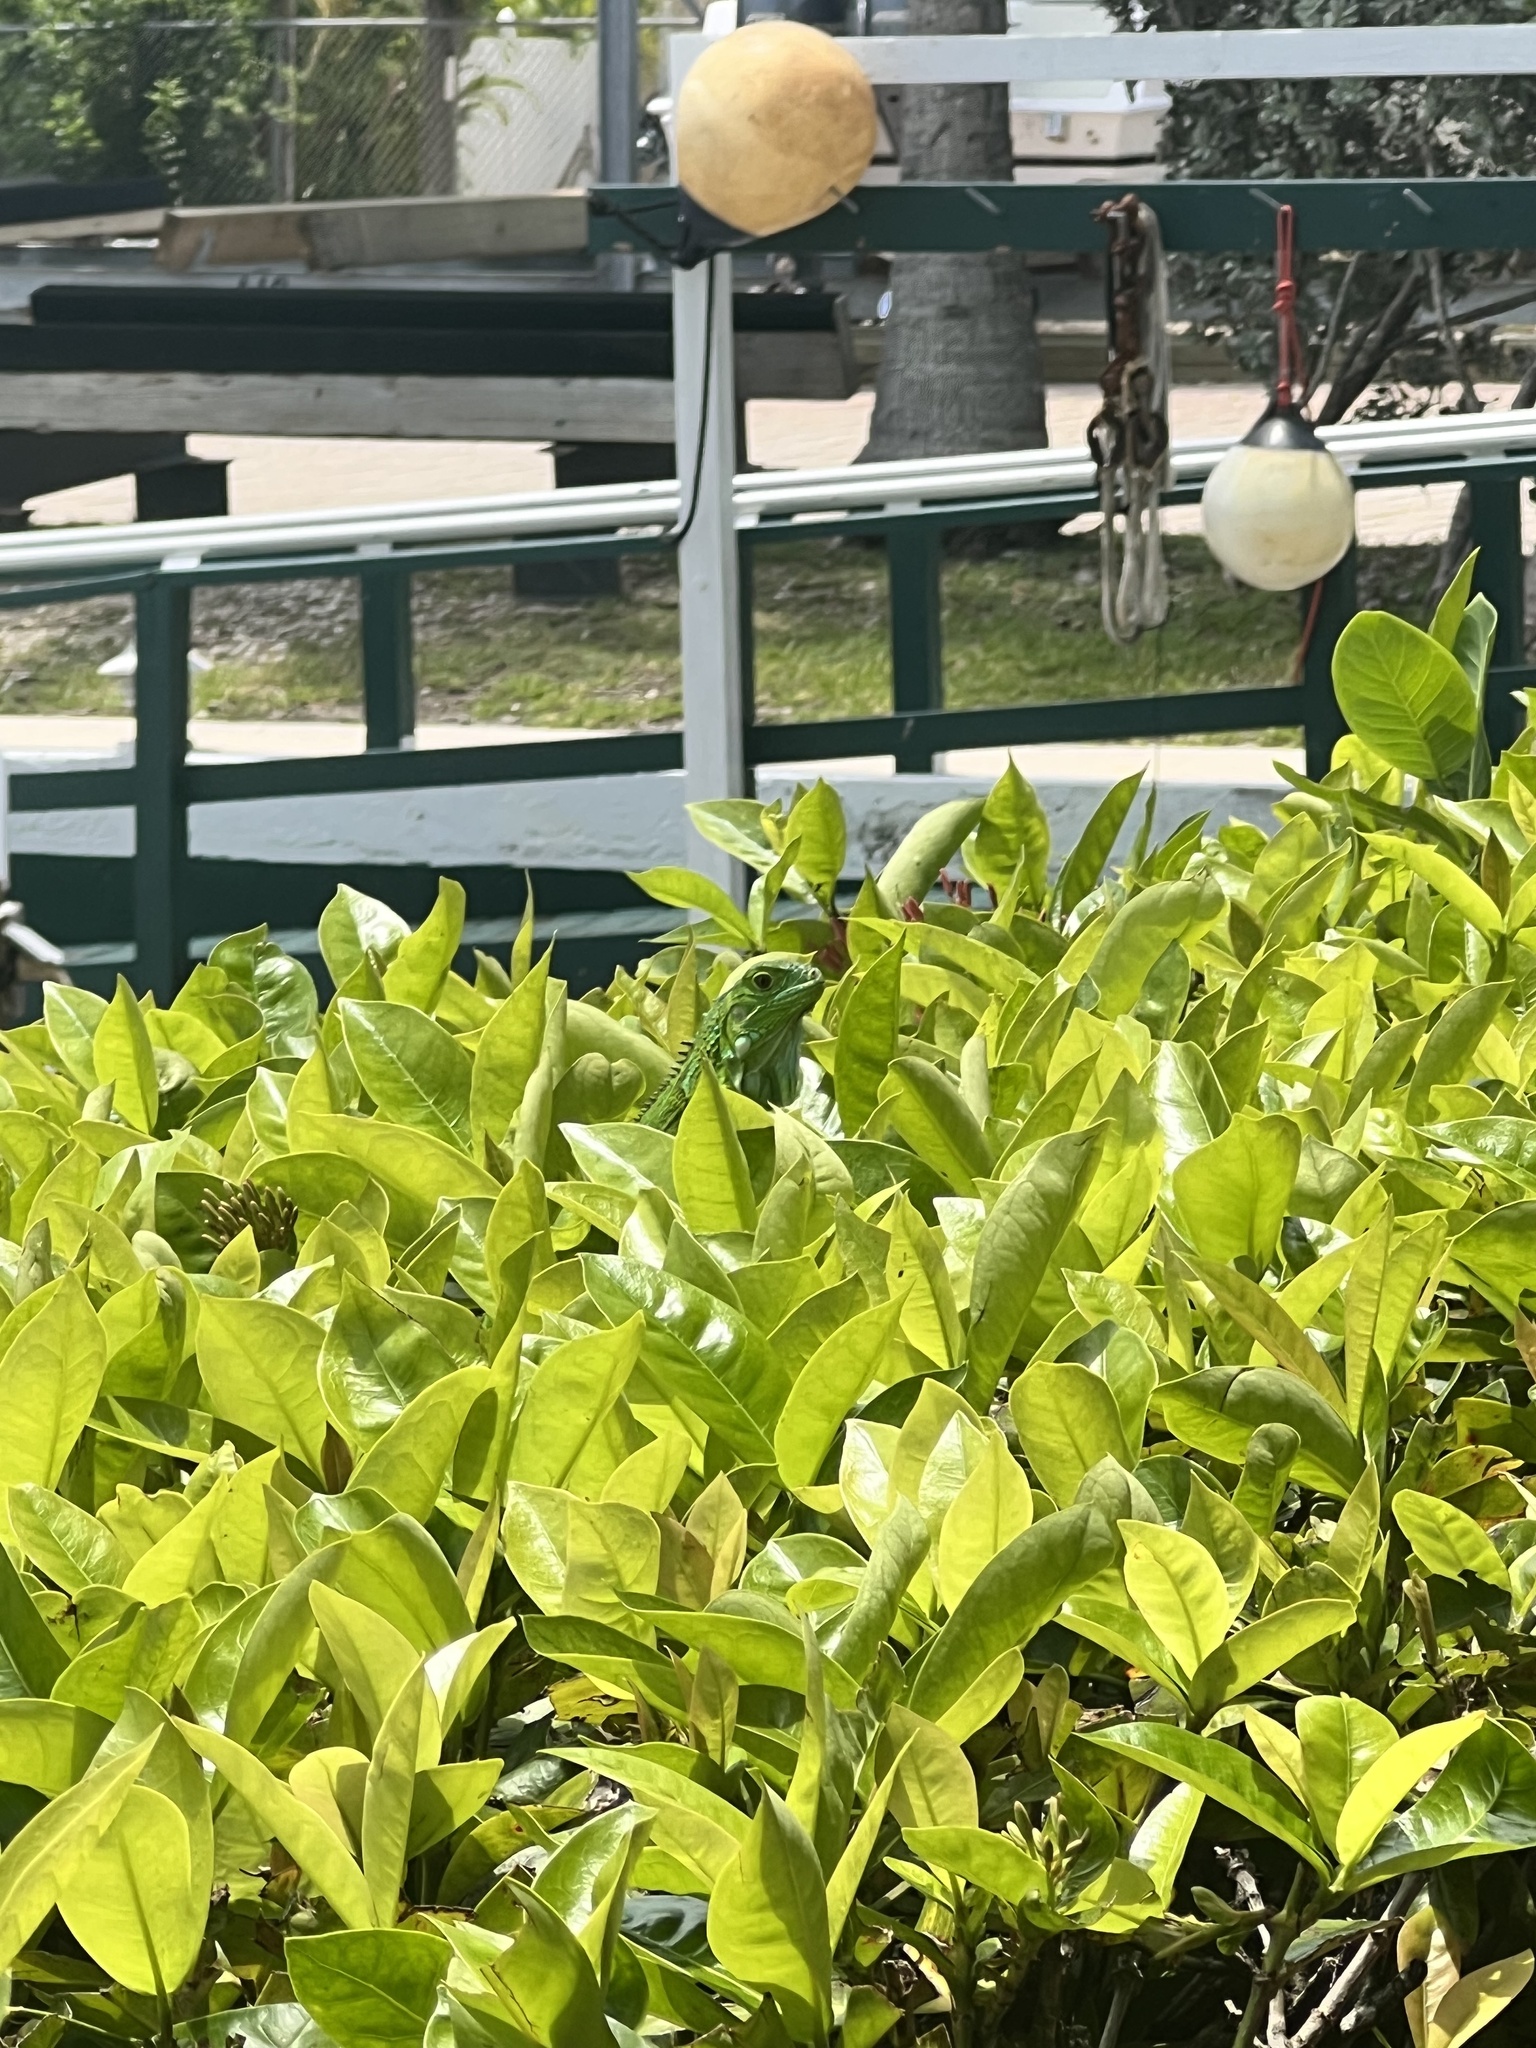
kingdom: Animalia
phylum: Chordata
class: Squamata
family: Iguanidae
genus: Iguana
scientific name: Iguana iguana
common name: Green iguana
